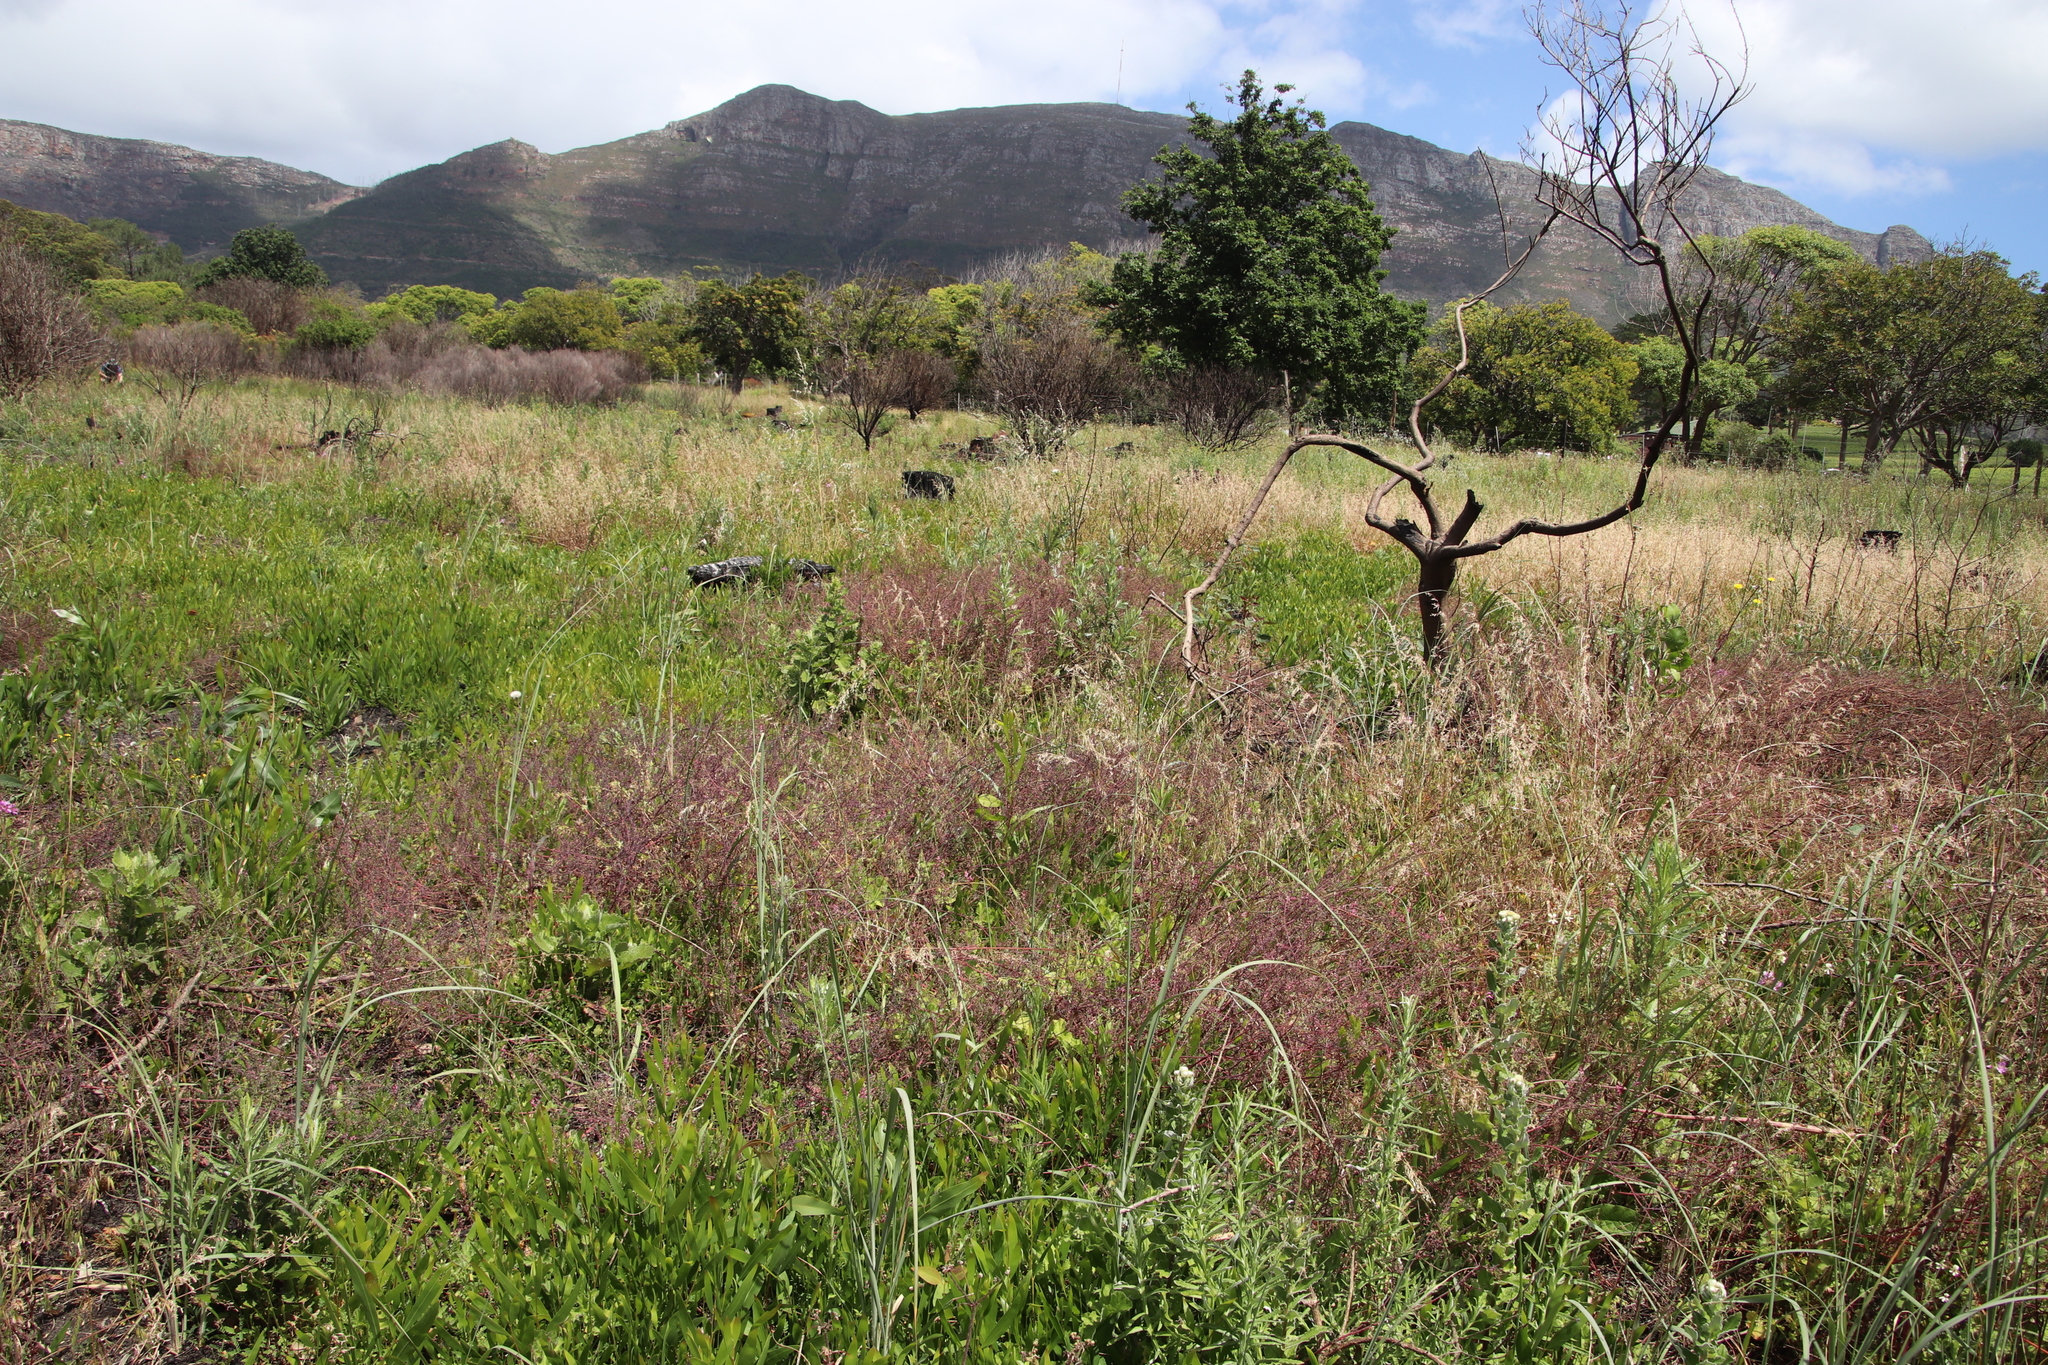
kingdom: Plantae
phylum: Tracheophyta
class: Magnoliopsida
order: Ranunculales
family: Papaveraceae
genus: Fumaria
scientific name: Fumaria muralis
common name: Common ramping-fumitory
